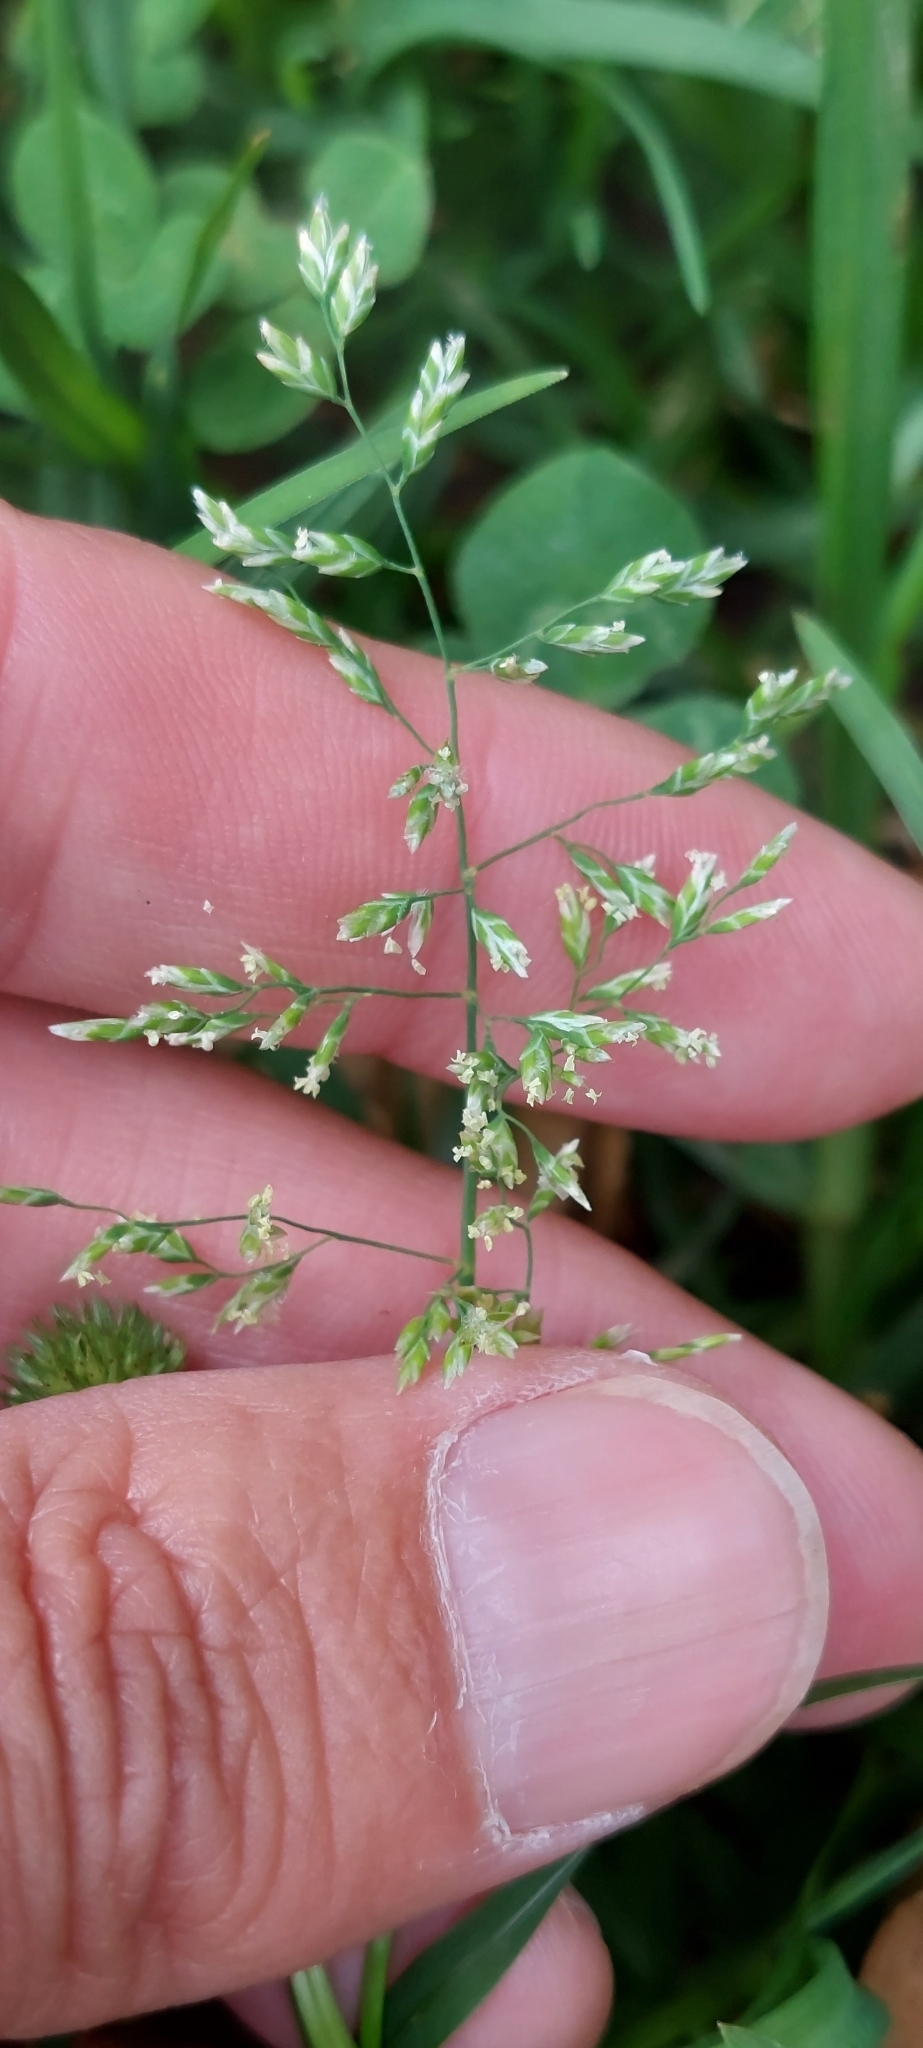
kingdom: Plantae
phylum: Tracheophyta
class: Liliopsida
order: Poales
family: Poaceae
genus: Poa
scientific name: Poa annua
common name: Annual bluegrass
